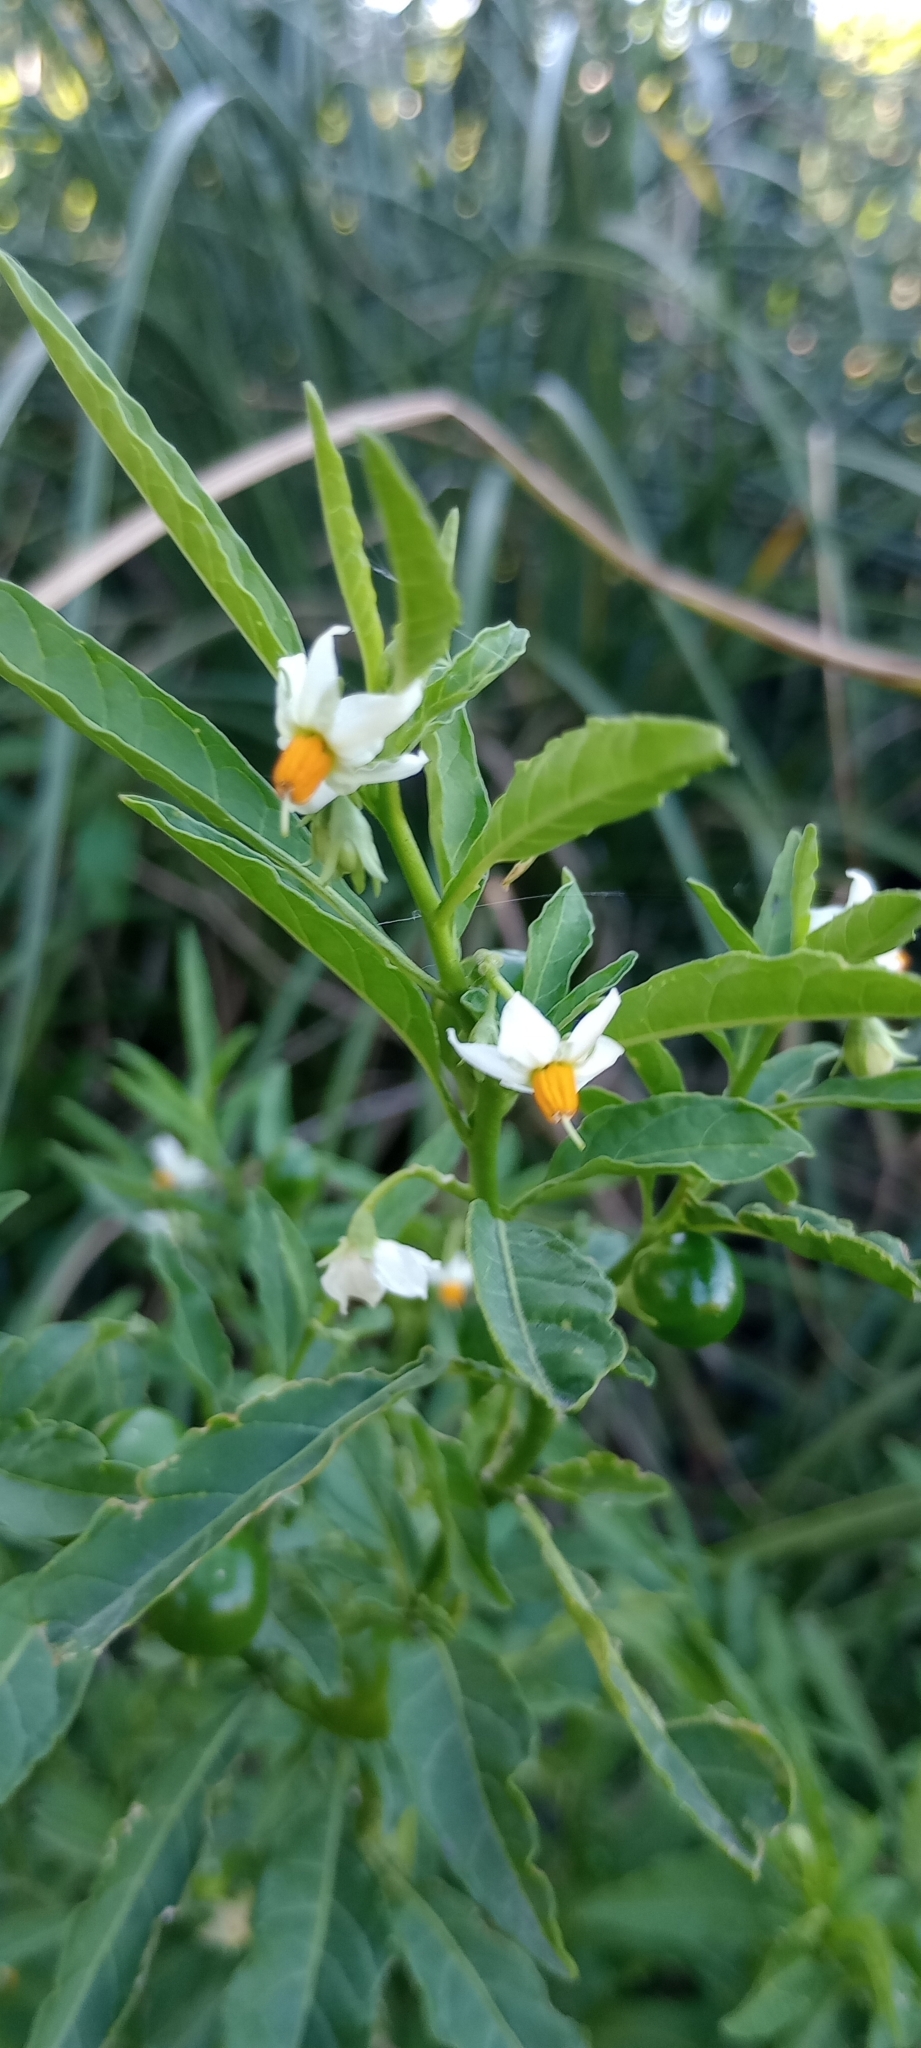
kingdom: Plantae
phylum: Tracheophyta
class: Magnoliopsida
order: Solanales
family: Solanaceae
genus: Solanum
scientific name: Solanum pseudocapsicum
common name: Jerusalem cherry
